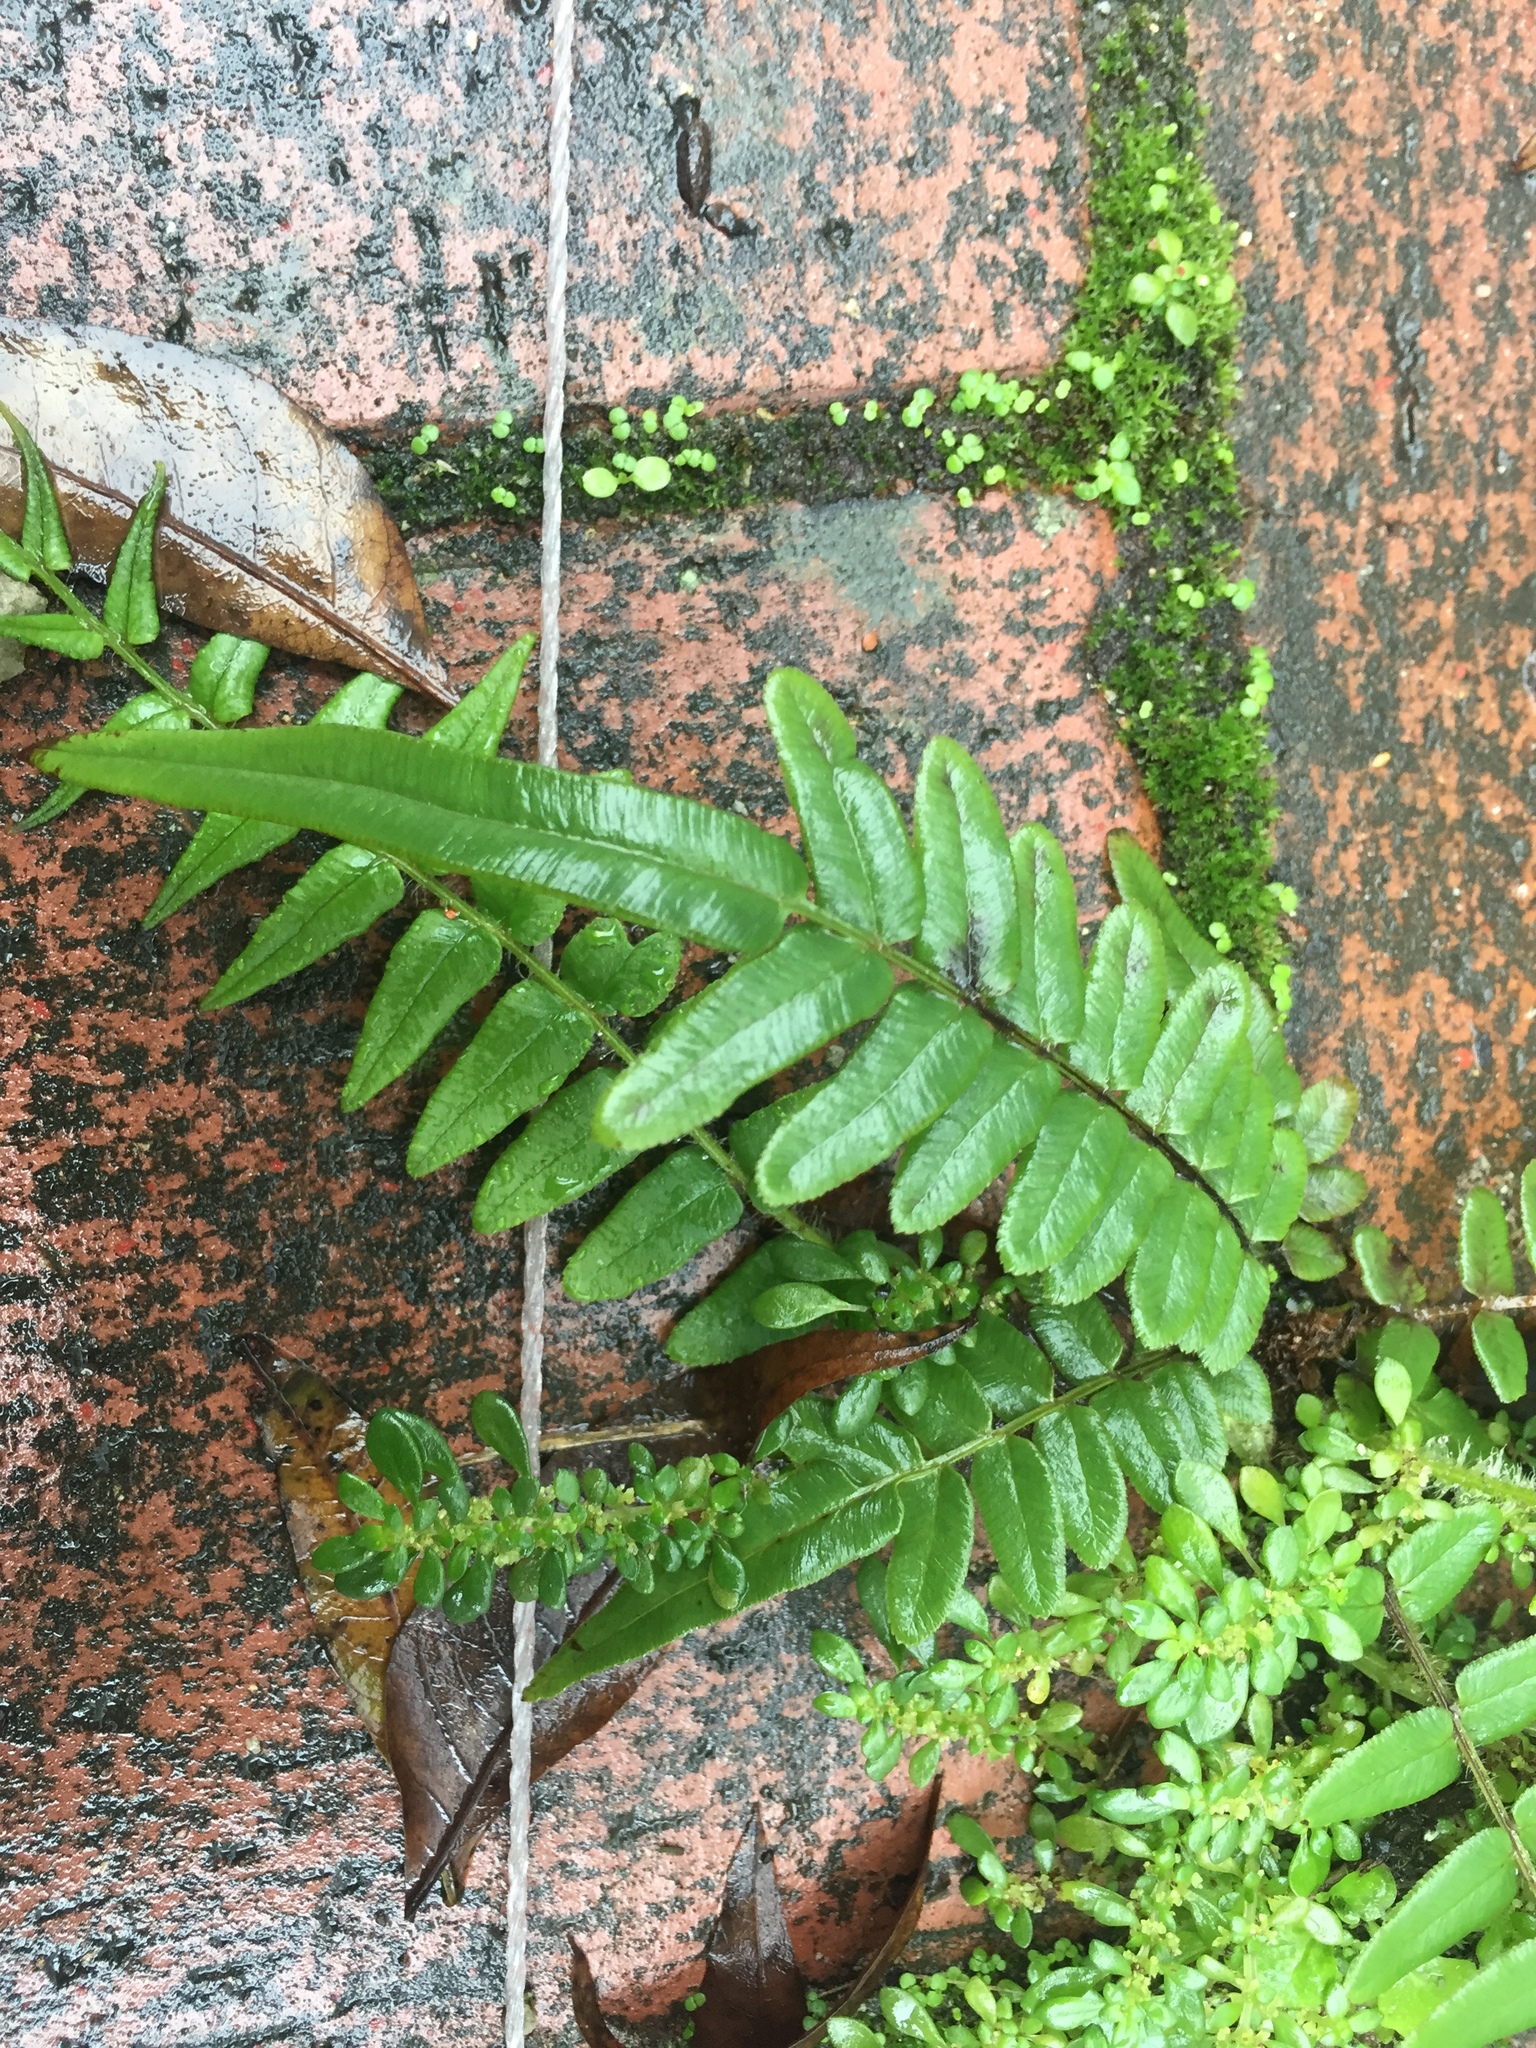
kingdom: Plantae
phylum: Tracheophyta
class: Polypodiopsida
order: Polypodiales
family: Pteridaceae
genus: Pteris
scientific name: Pteris vittata
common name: Ladder brake
